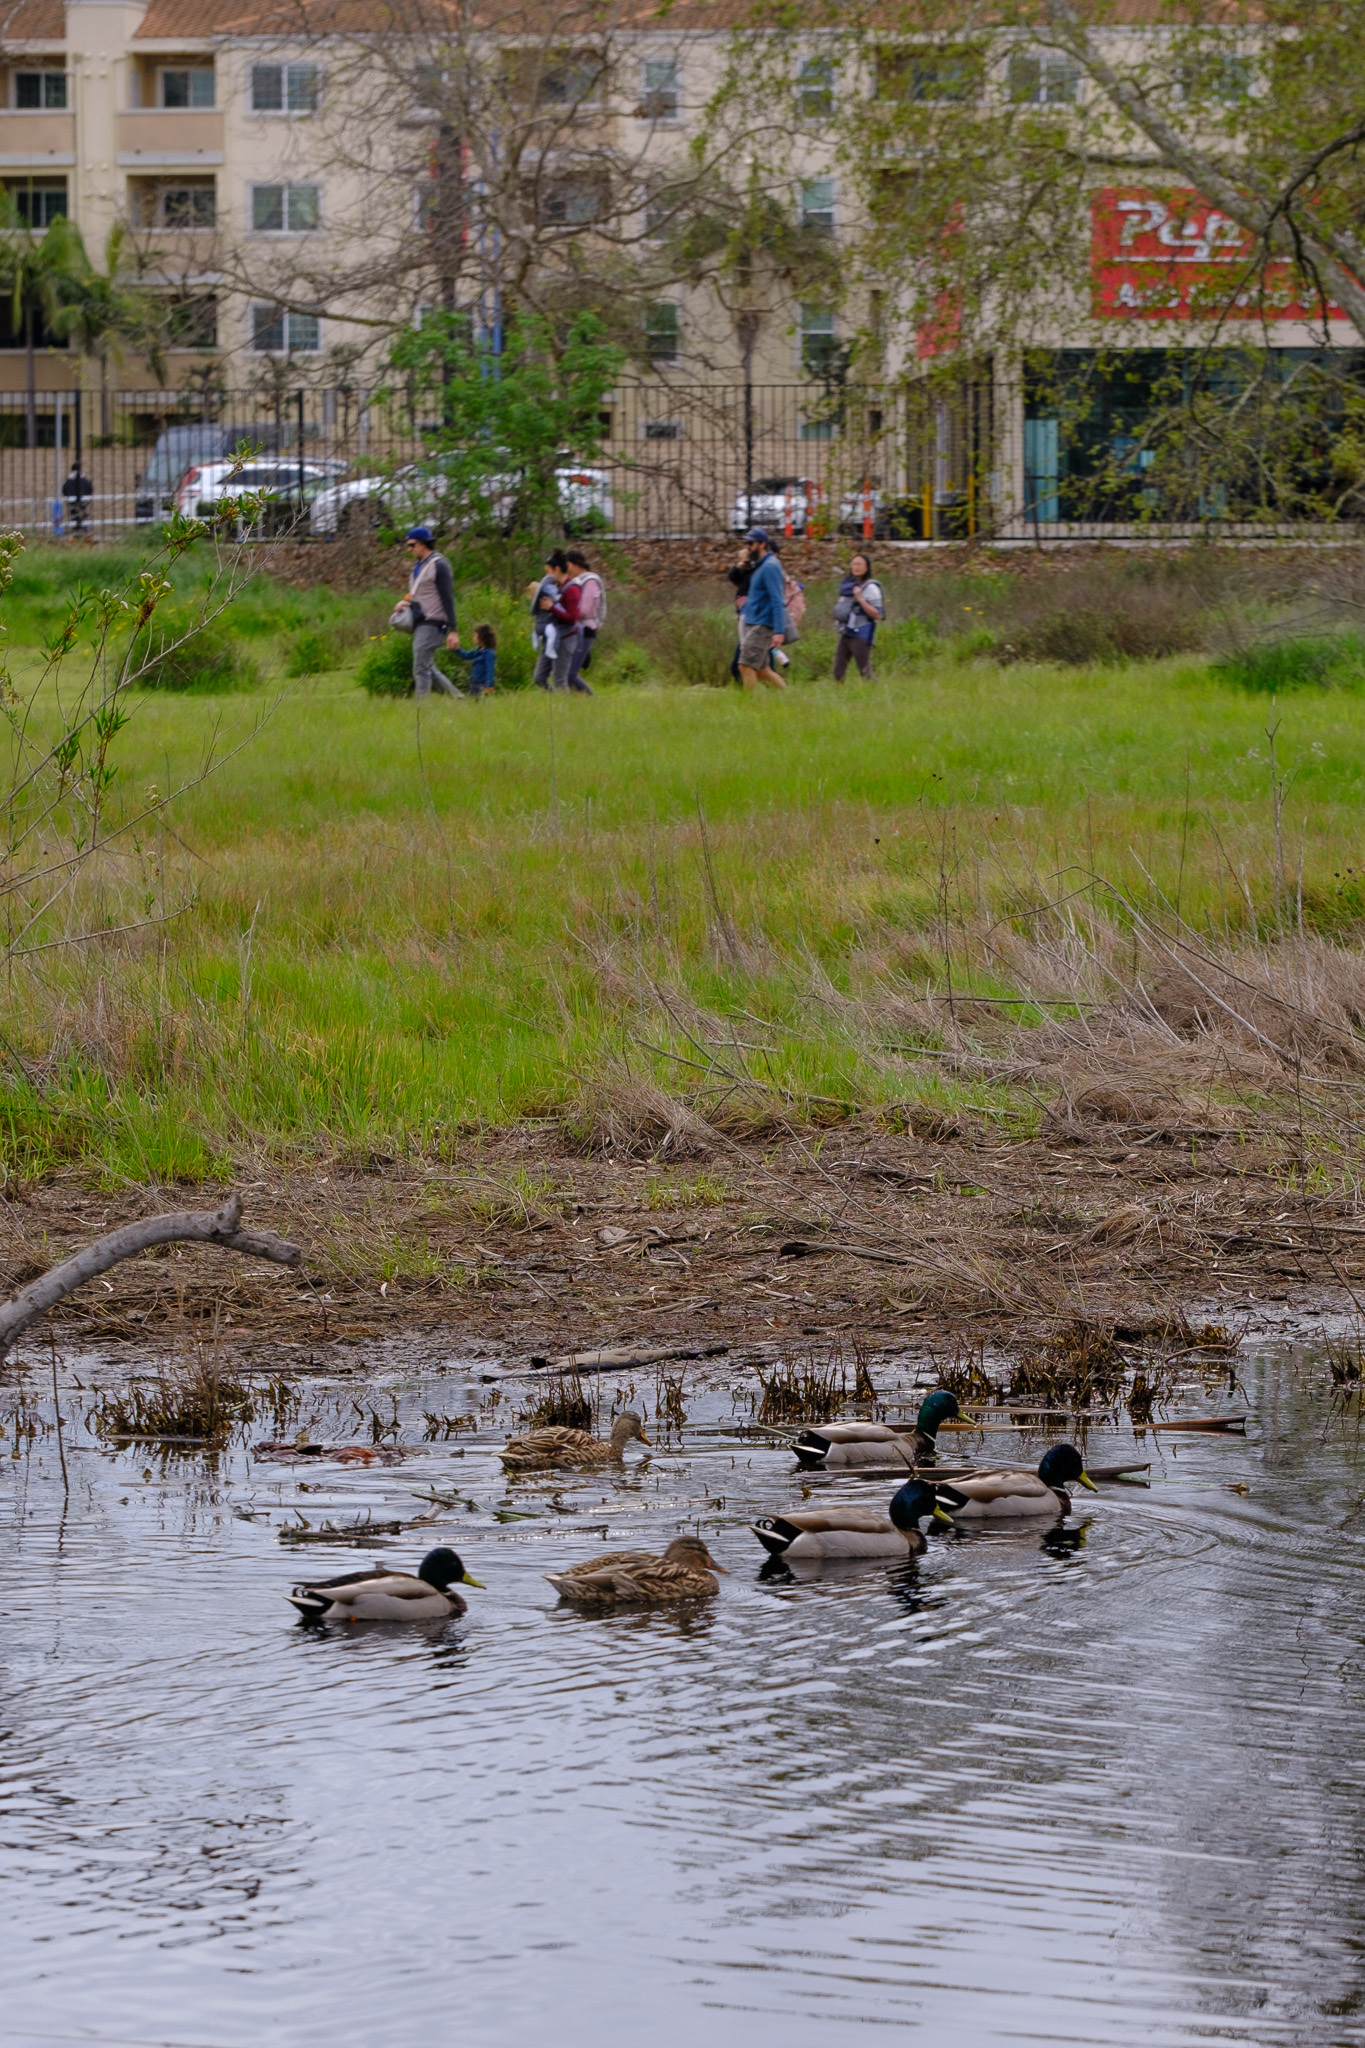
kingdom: Animalia
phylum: Chordata
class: Aves
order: Anseriformes
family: Anatidae
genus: Anas
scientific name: Anas platyrhynchos
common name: Mallard
